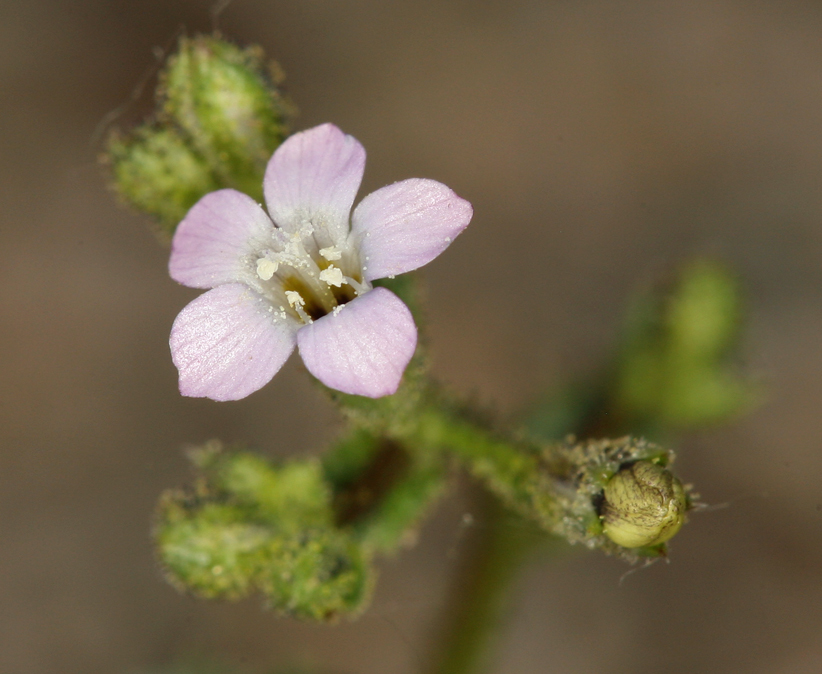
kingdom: Plantae
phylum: Tracheophyta
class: Magnoliopsida
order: Ericales
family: Polemoniaceae
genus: Gilia
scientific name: Gilia sinuata
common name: Rosy gilia
